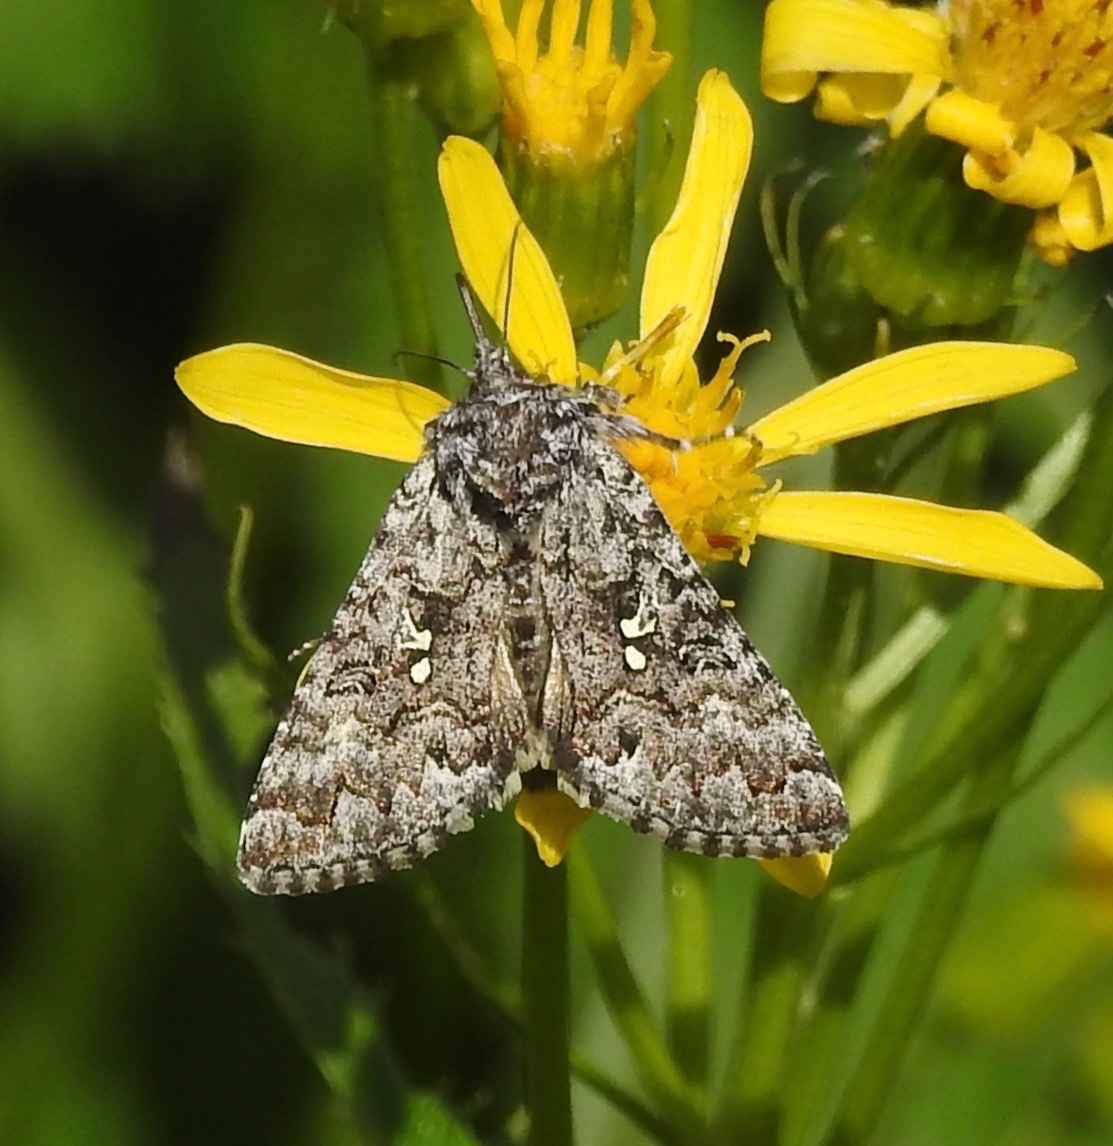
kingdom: Animalia
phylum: Arthropoda
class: Insecta
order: Lepidoptera
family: Noctuidae
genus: Syngrapha
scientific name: Syngrapha angulidens
